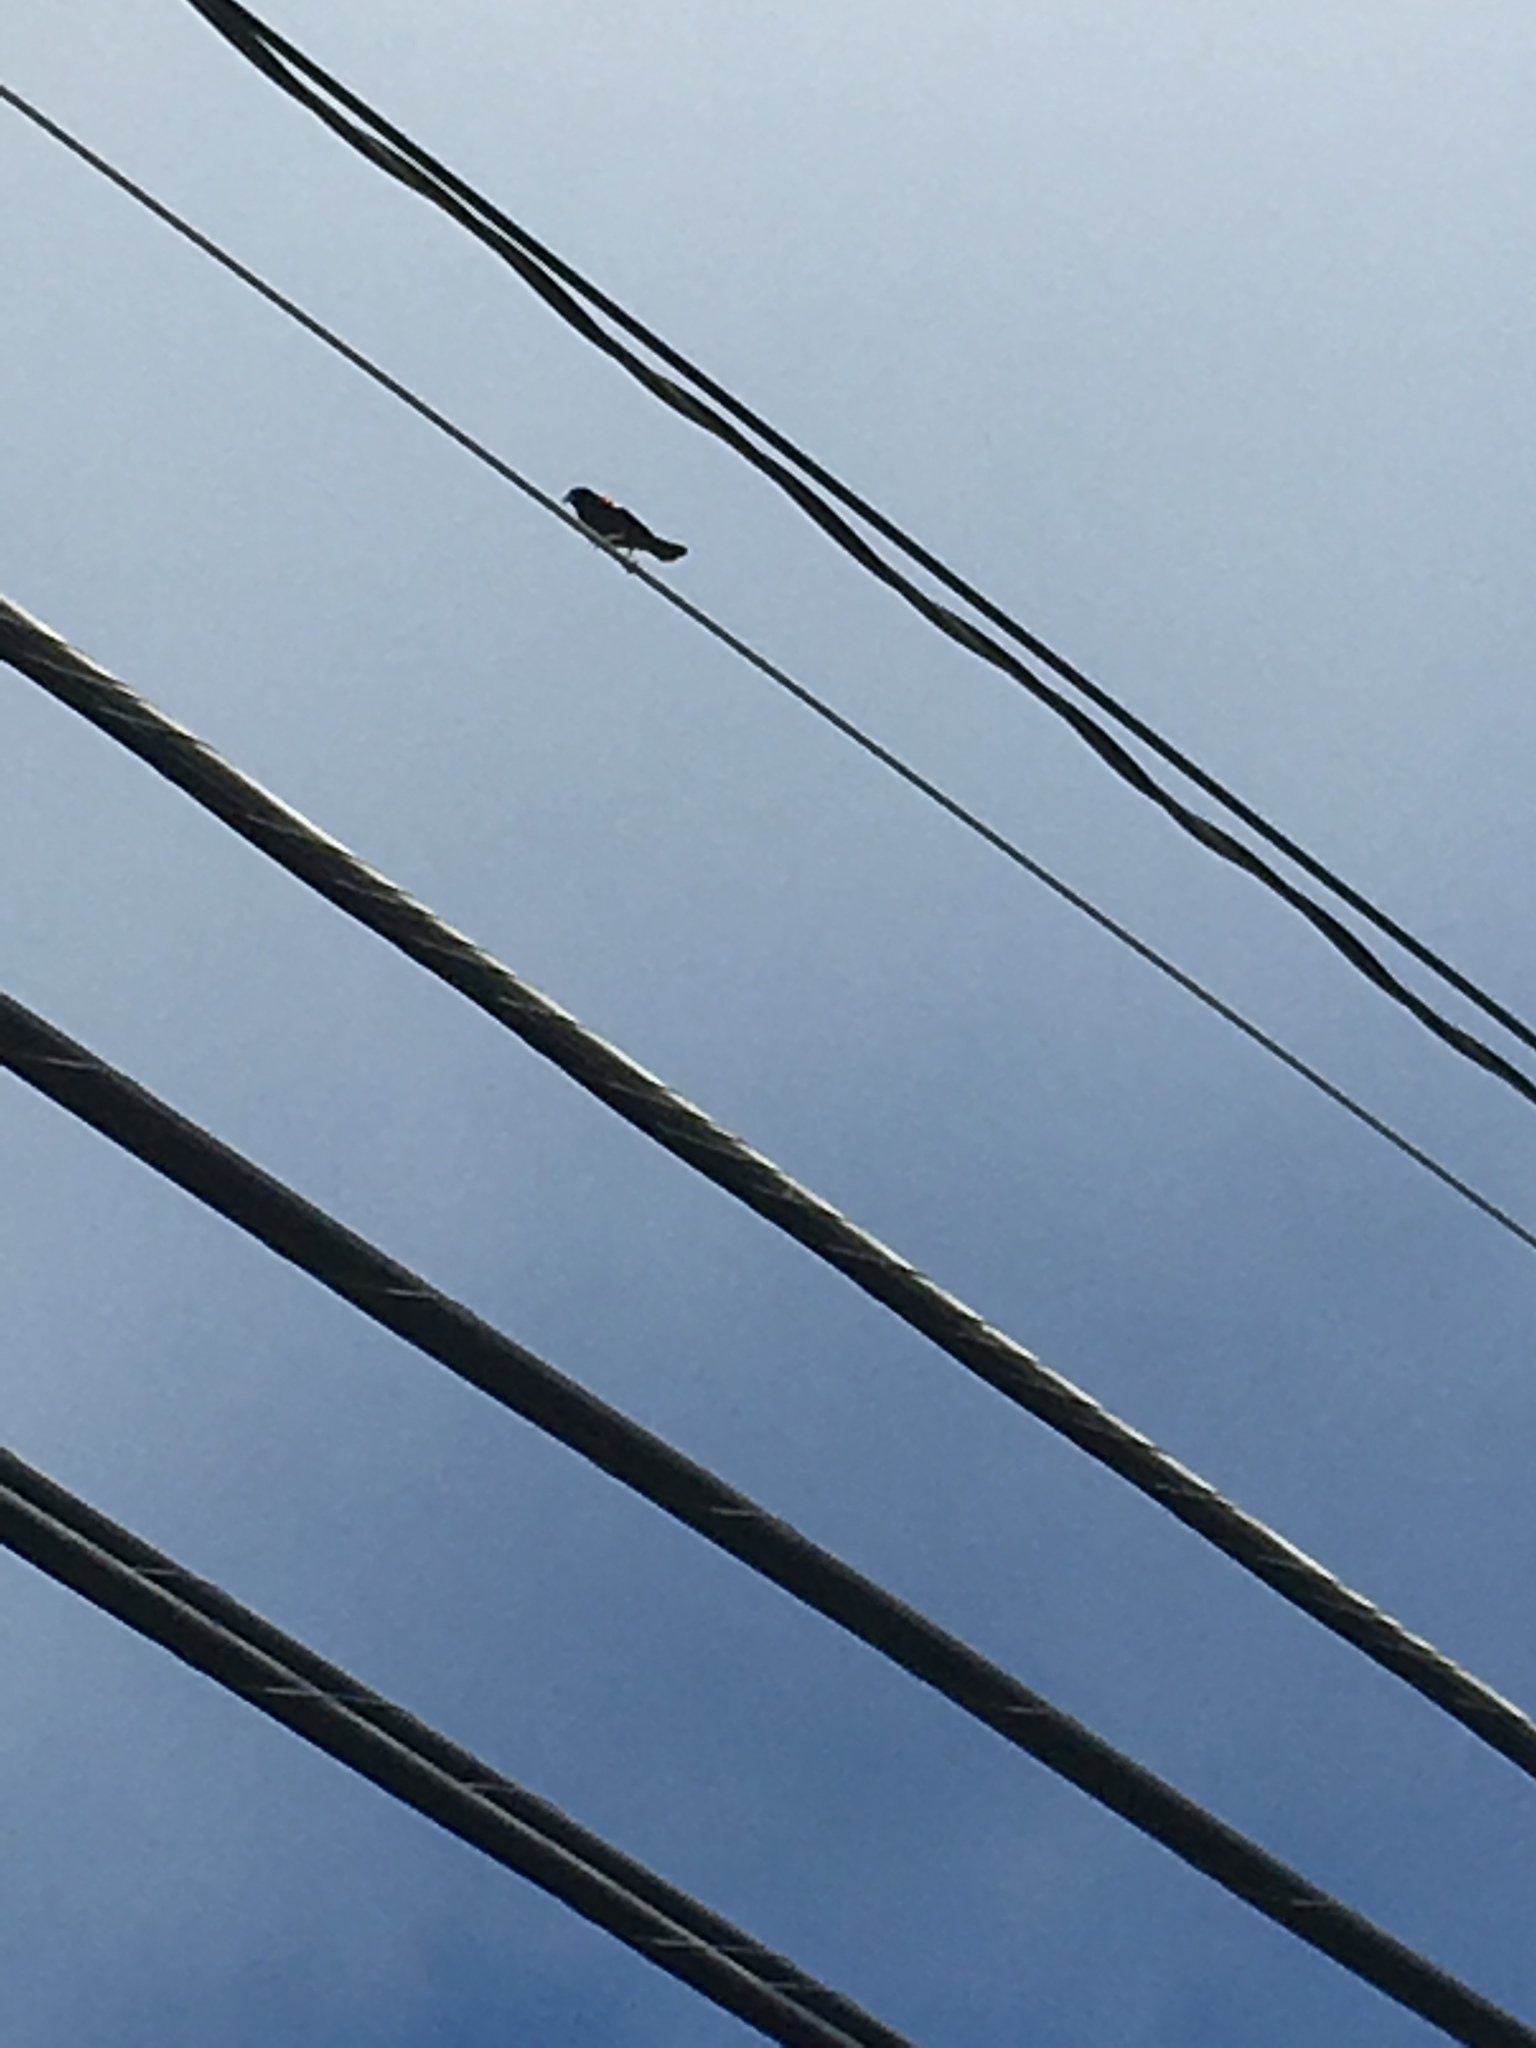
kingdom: Animalia
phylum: Chordata
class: Aves
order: Passeriformes
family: Icteridae
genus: Agelaius
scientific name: Agelaius phoeniceus
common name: Red-winged blackbird
